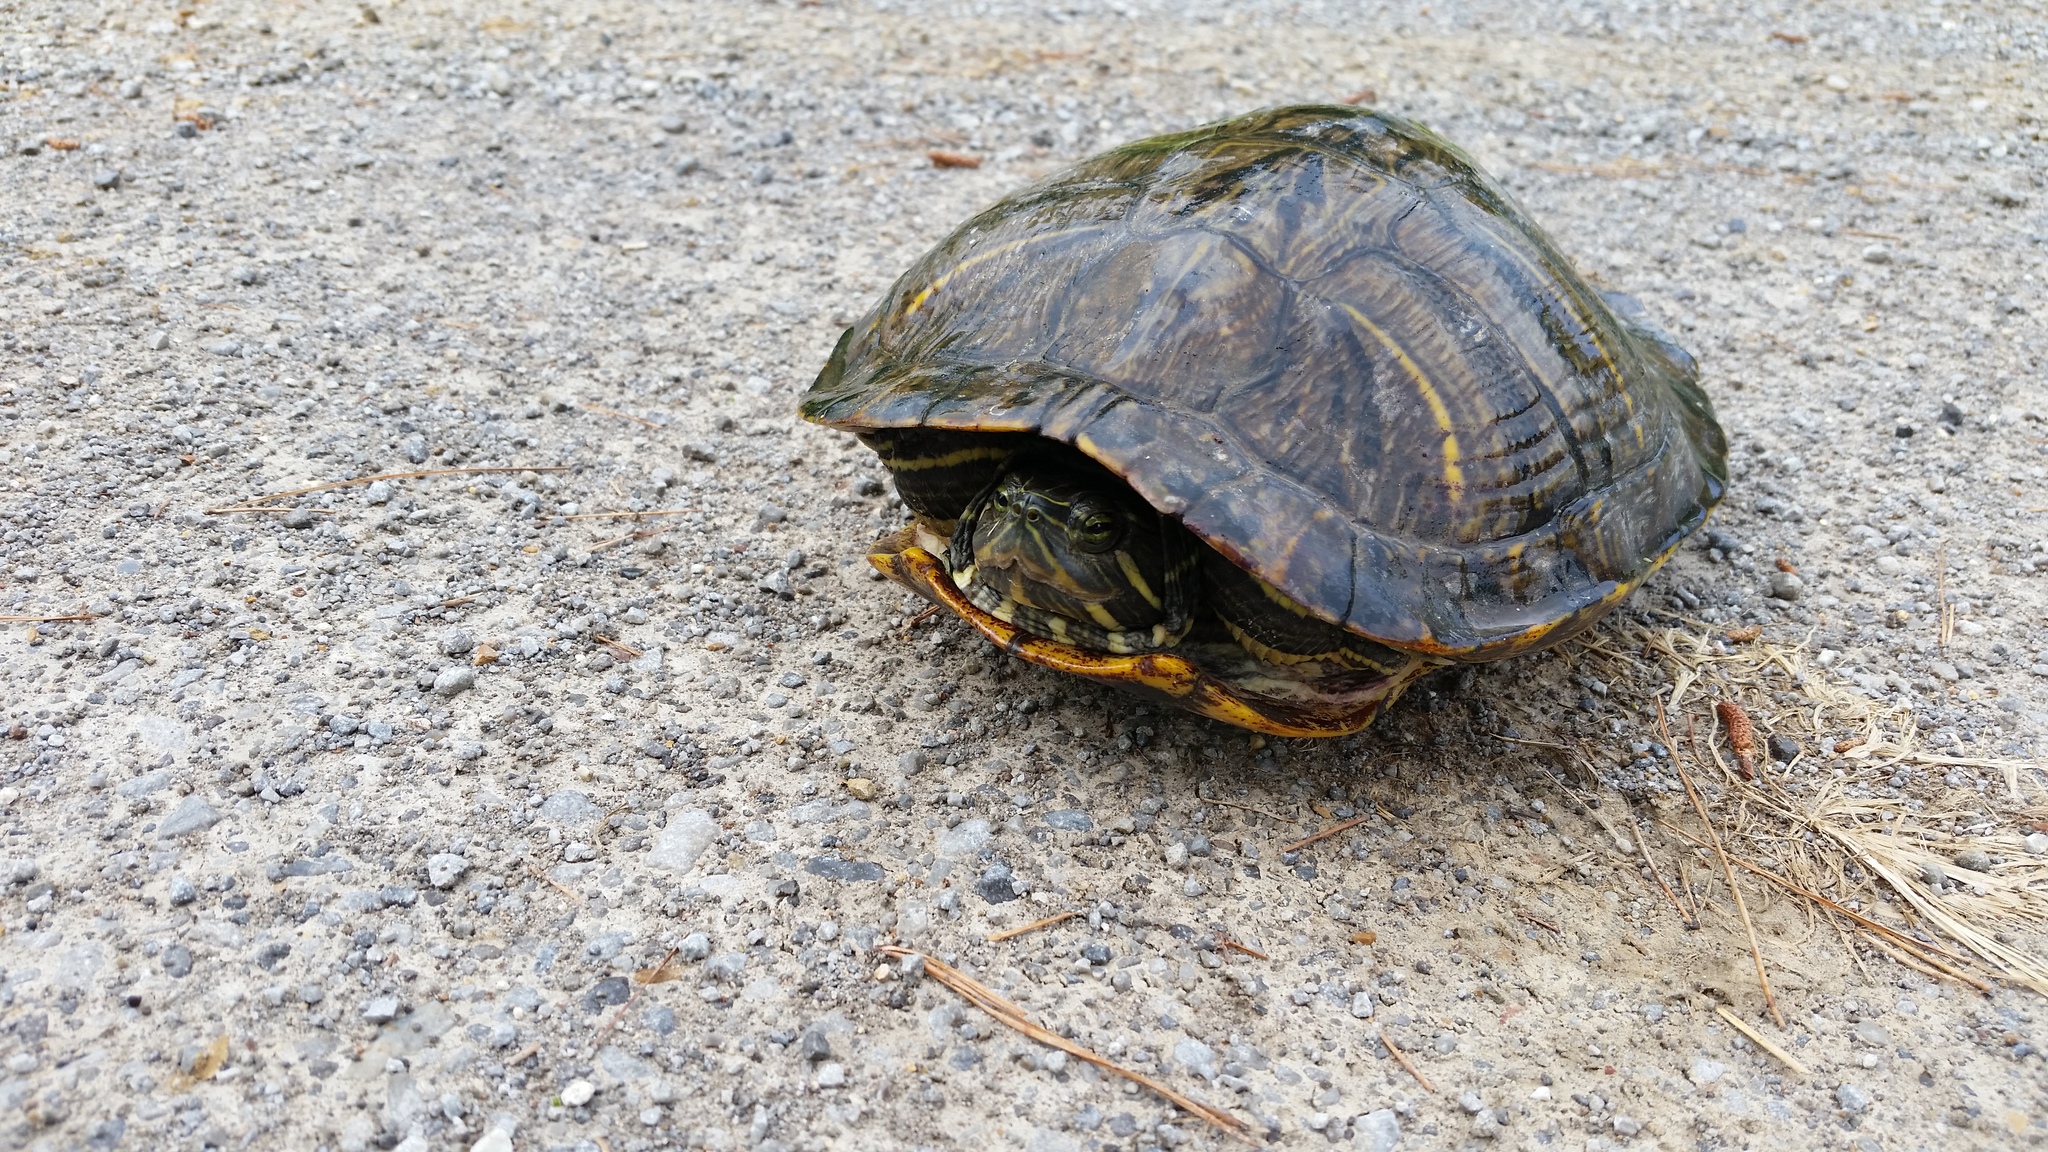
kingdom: Animalia
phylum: Chordata
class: Testudines
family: Emydidae
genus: Trachemys
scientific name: Trachemys scripta
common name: Slider
